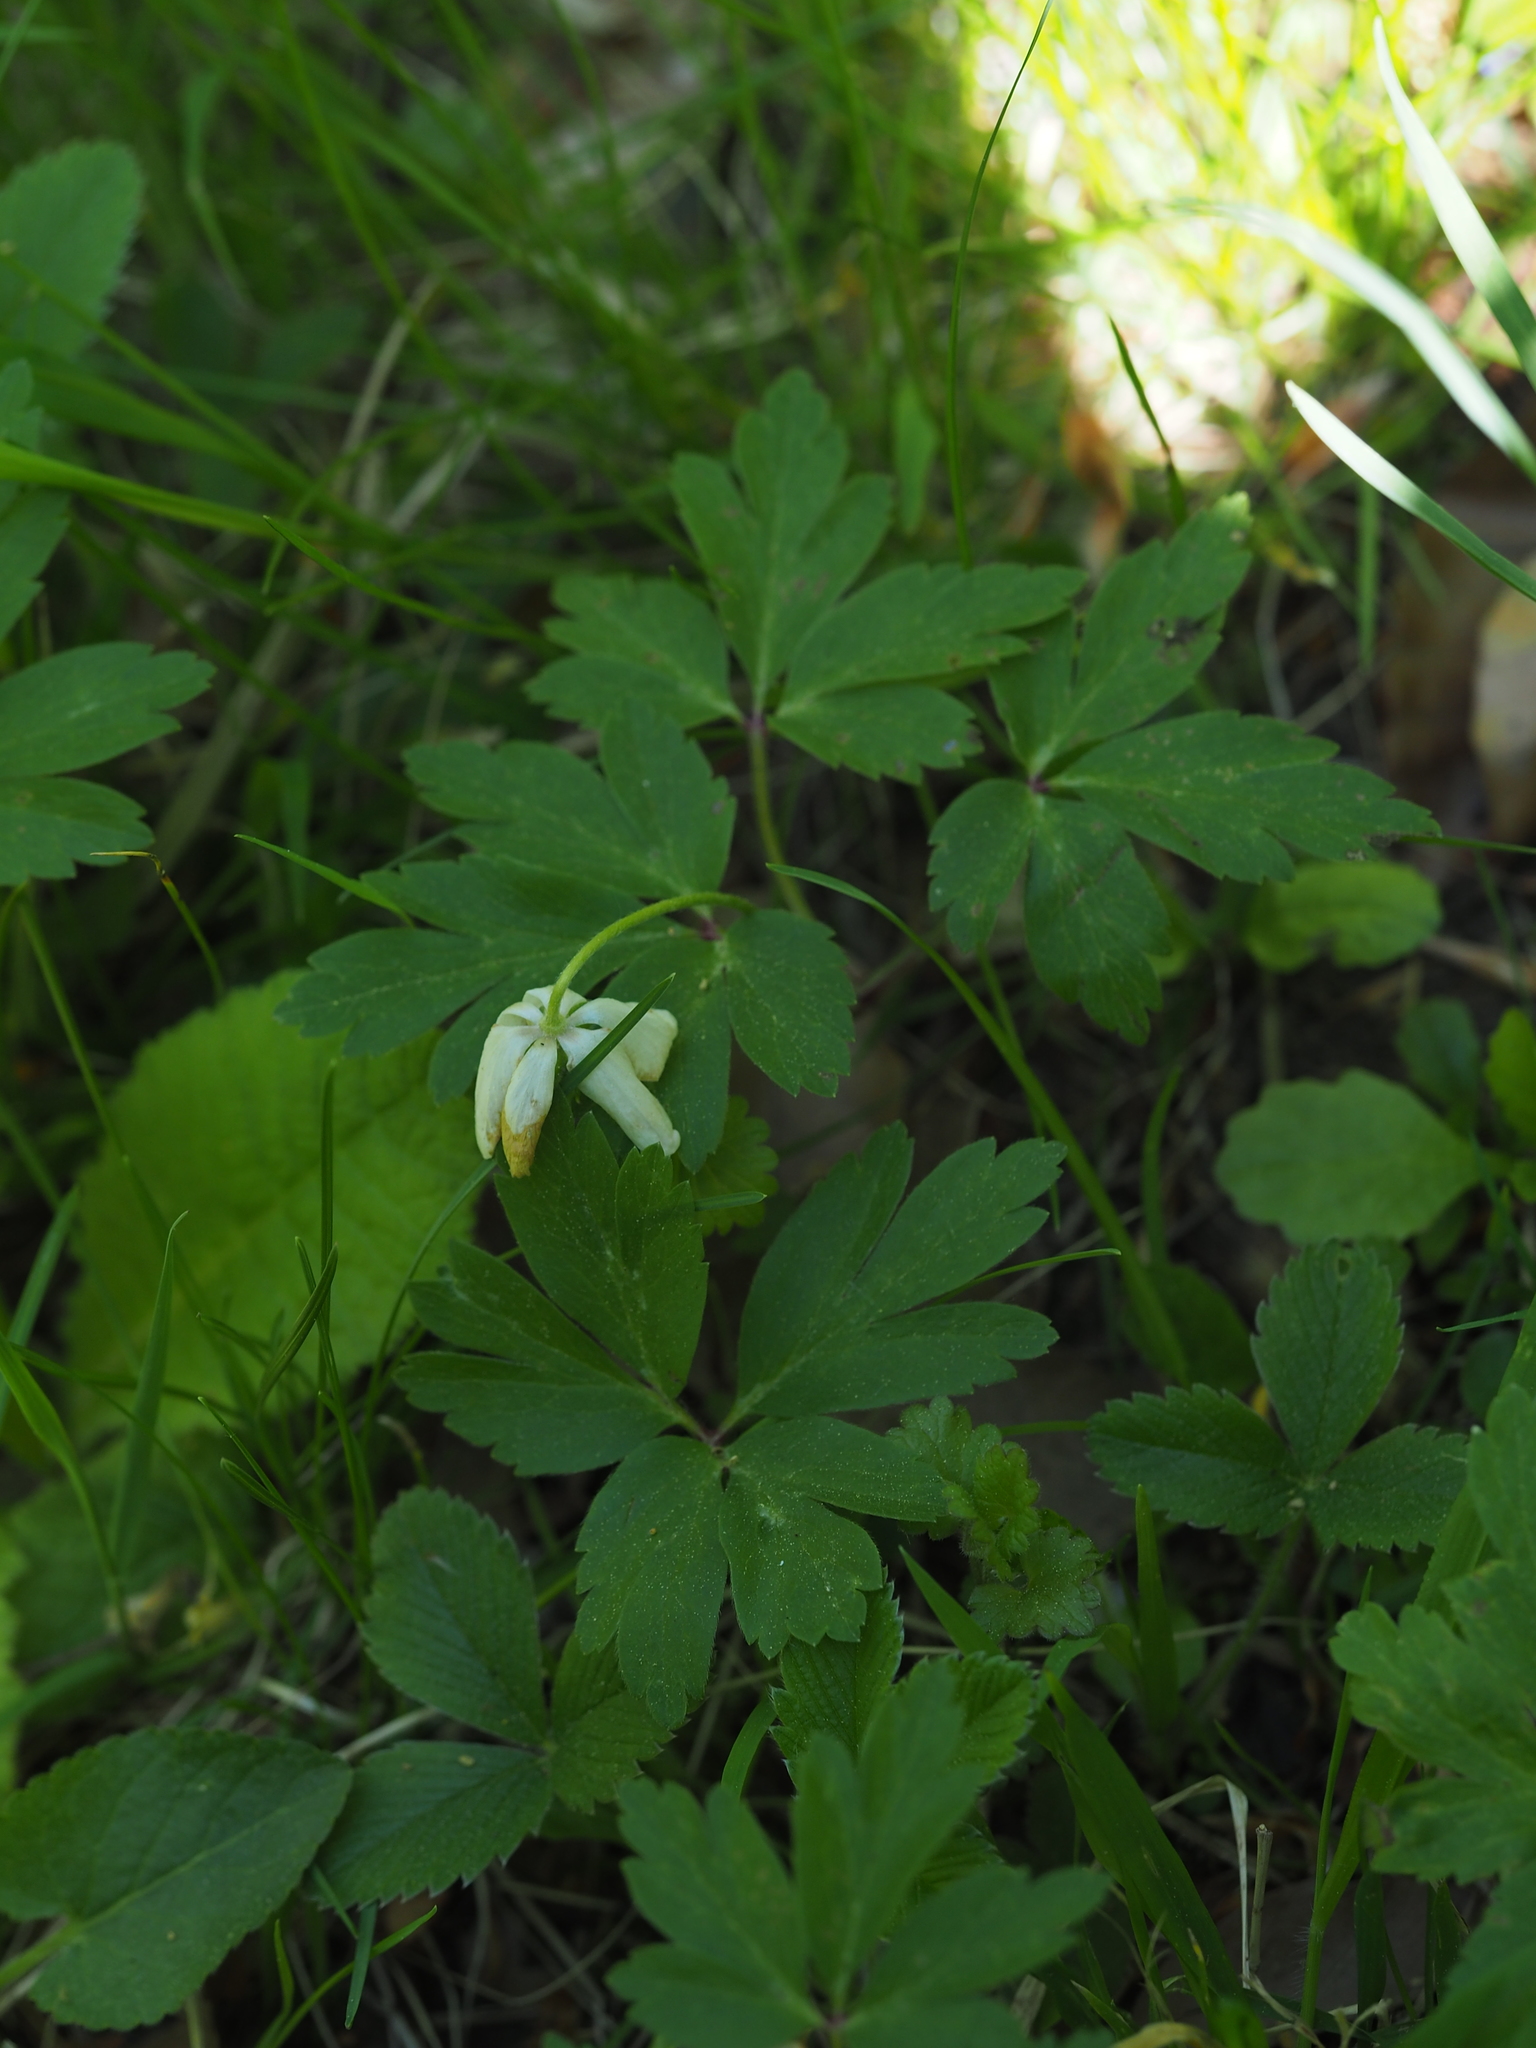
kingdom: Plantae
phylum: Tracheophyta
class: Magnoliopsida
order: Ranunculales
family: Ranunculaceae
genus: Anemone
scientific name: Anemone nemorosa
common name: Wood anemone
